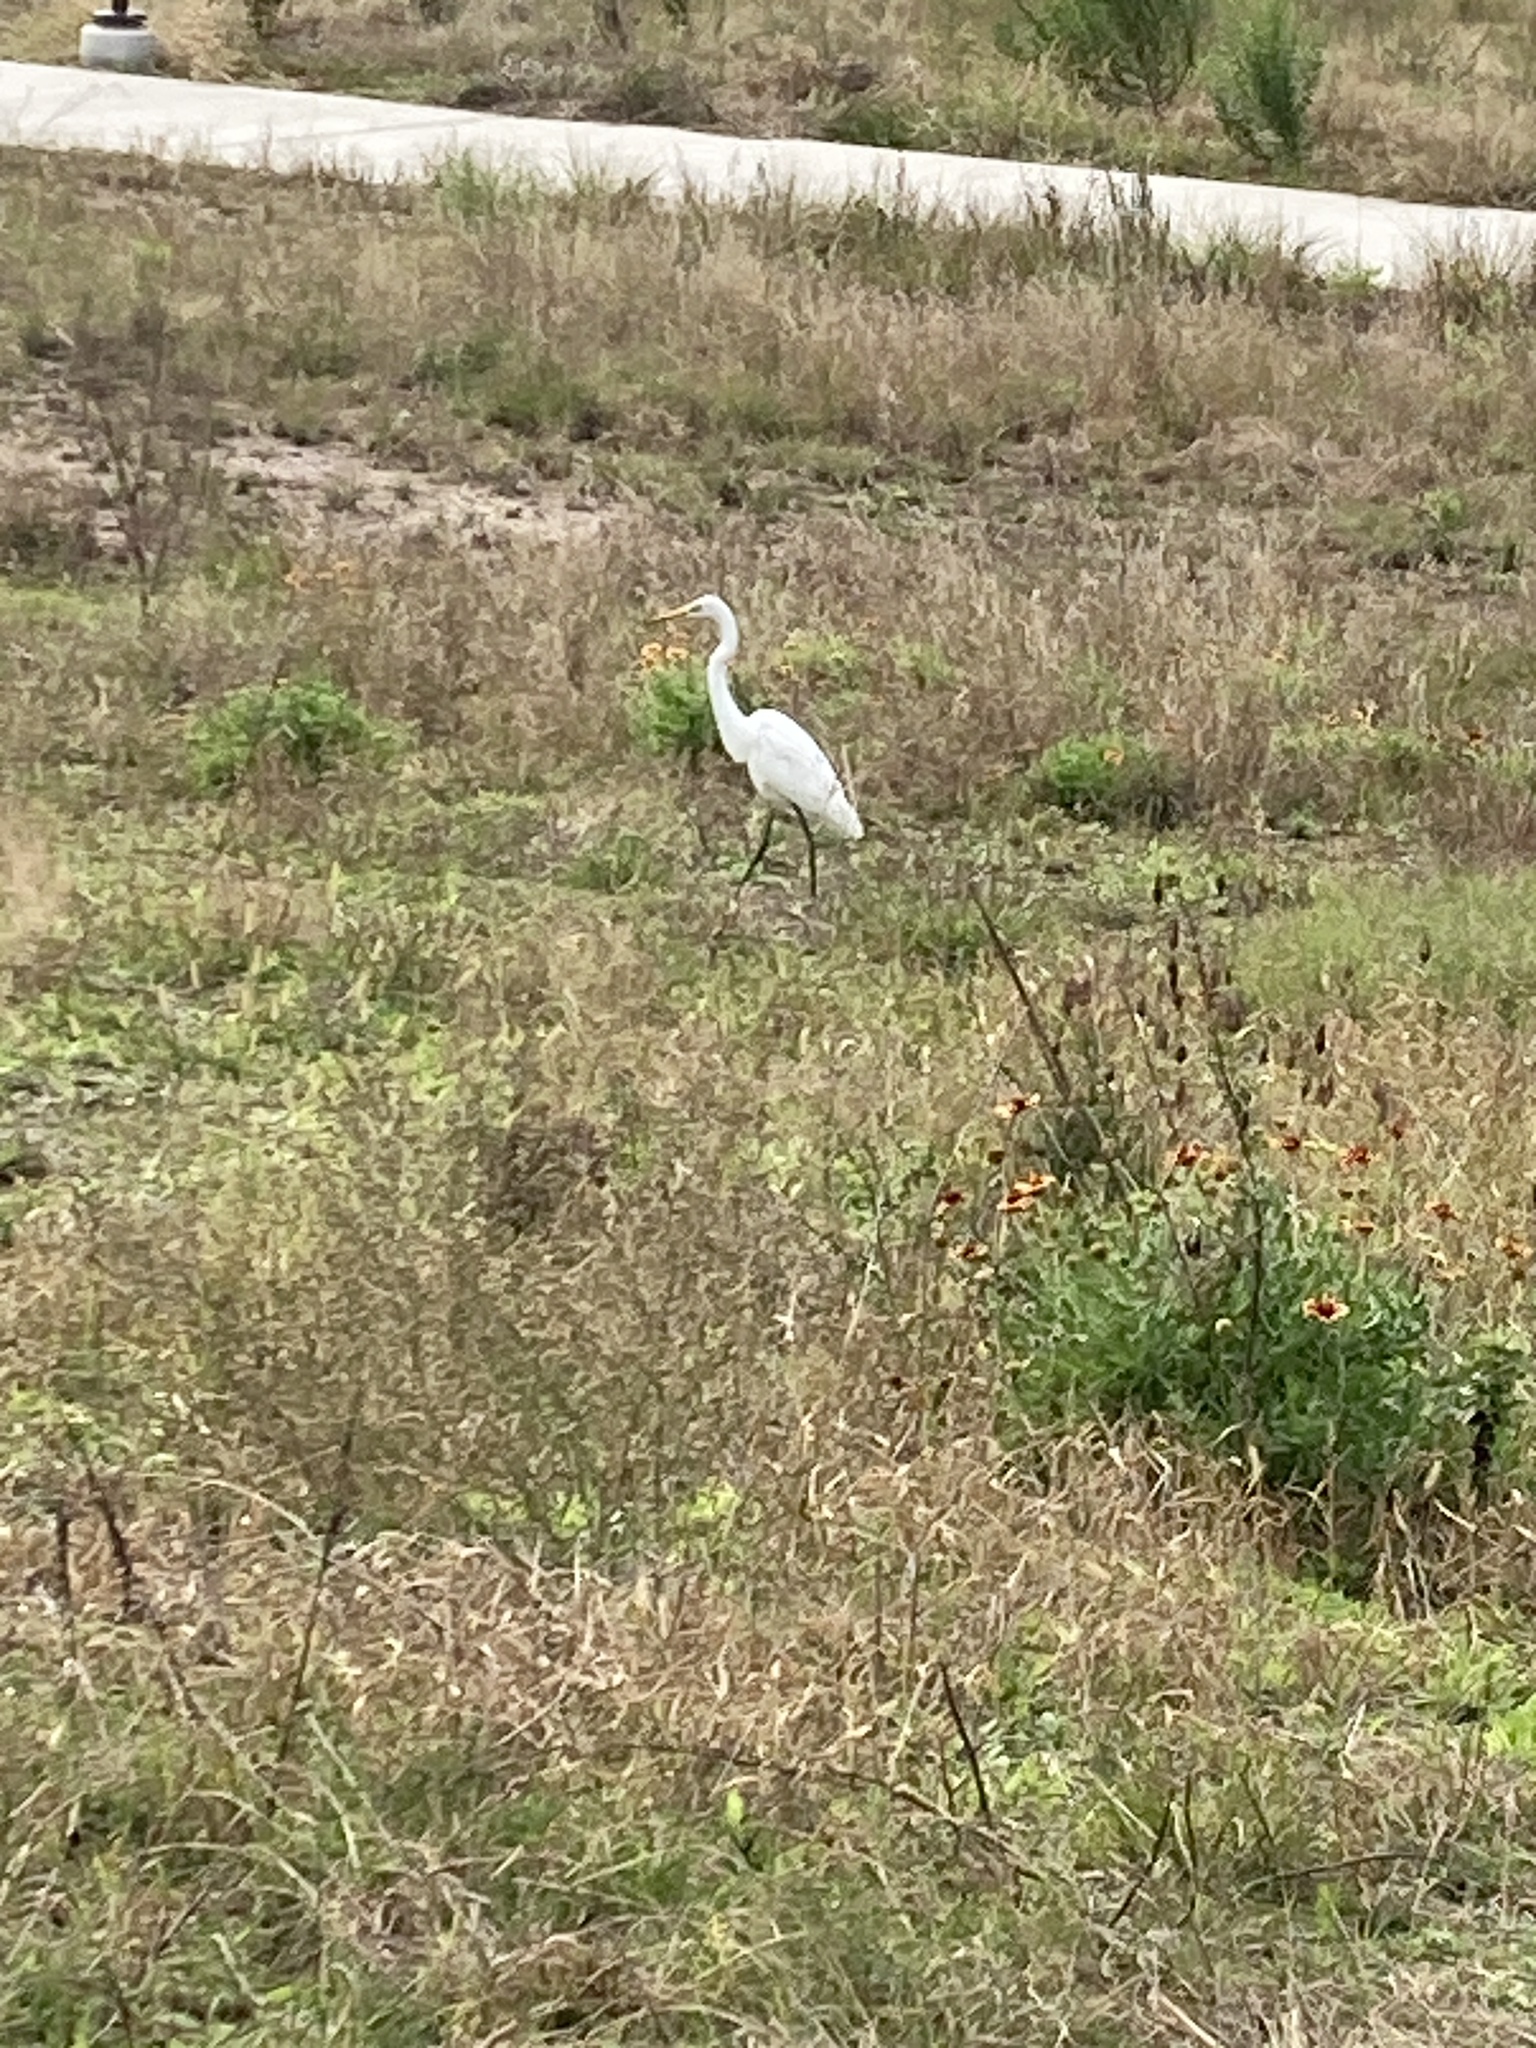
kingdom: Animalia
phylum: Chordata
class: Aves
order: Pelecaniformes
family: Ardeidae
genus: Ardea
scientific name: Ardea alba
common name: Great egret
